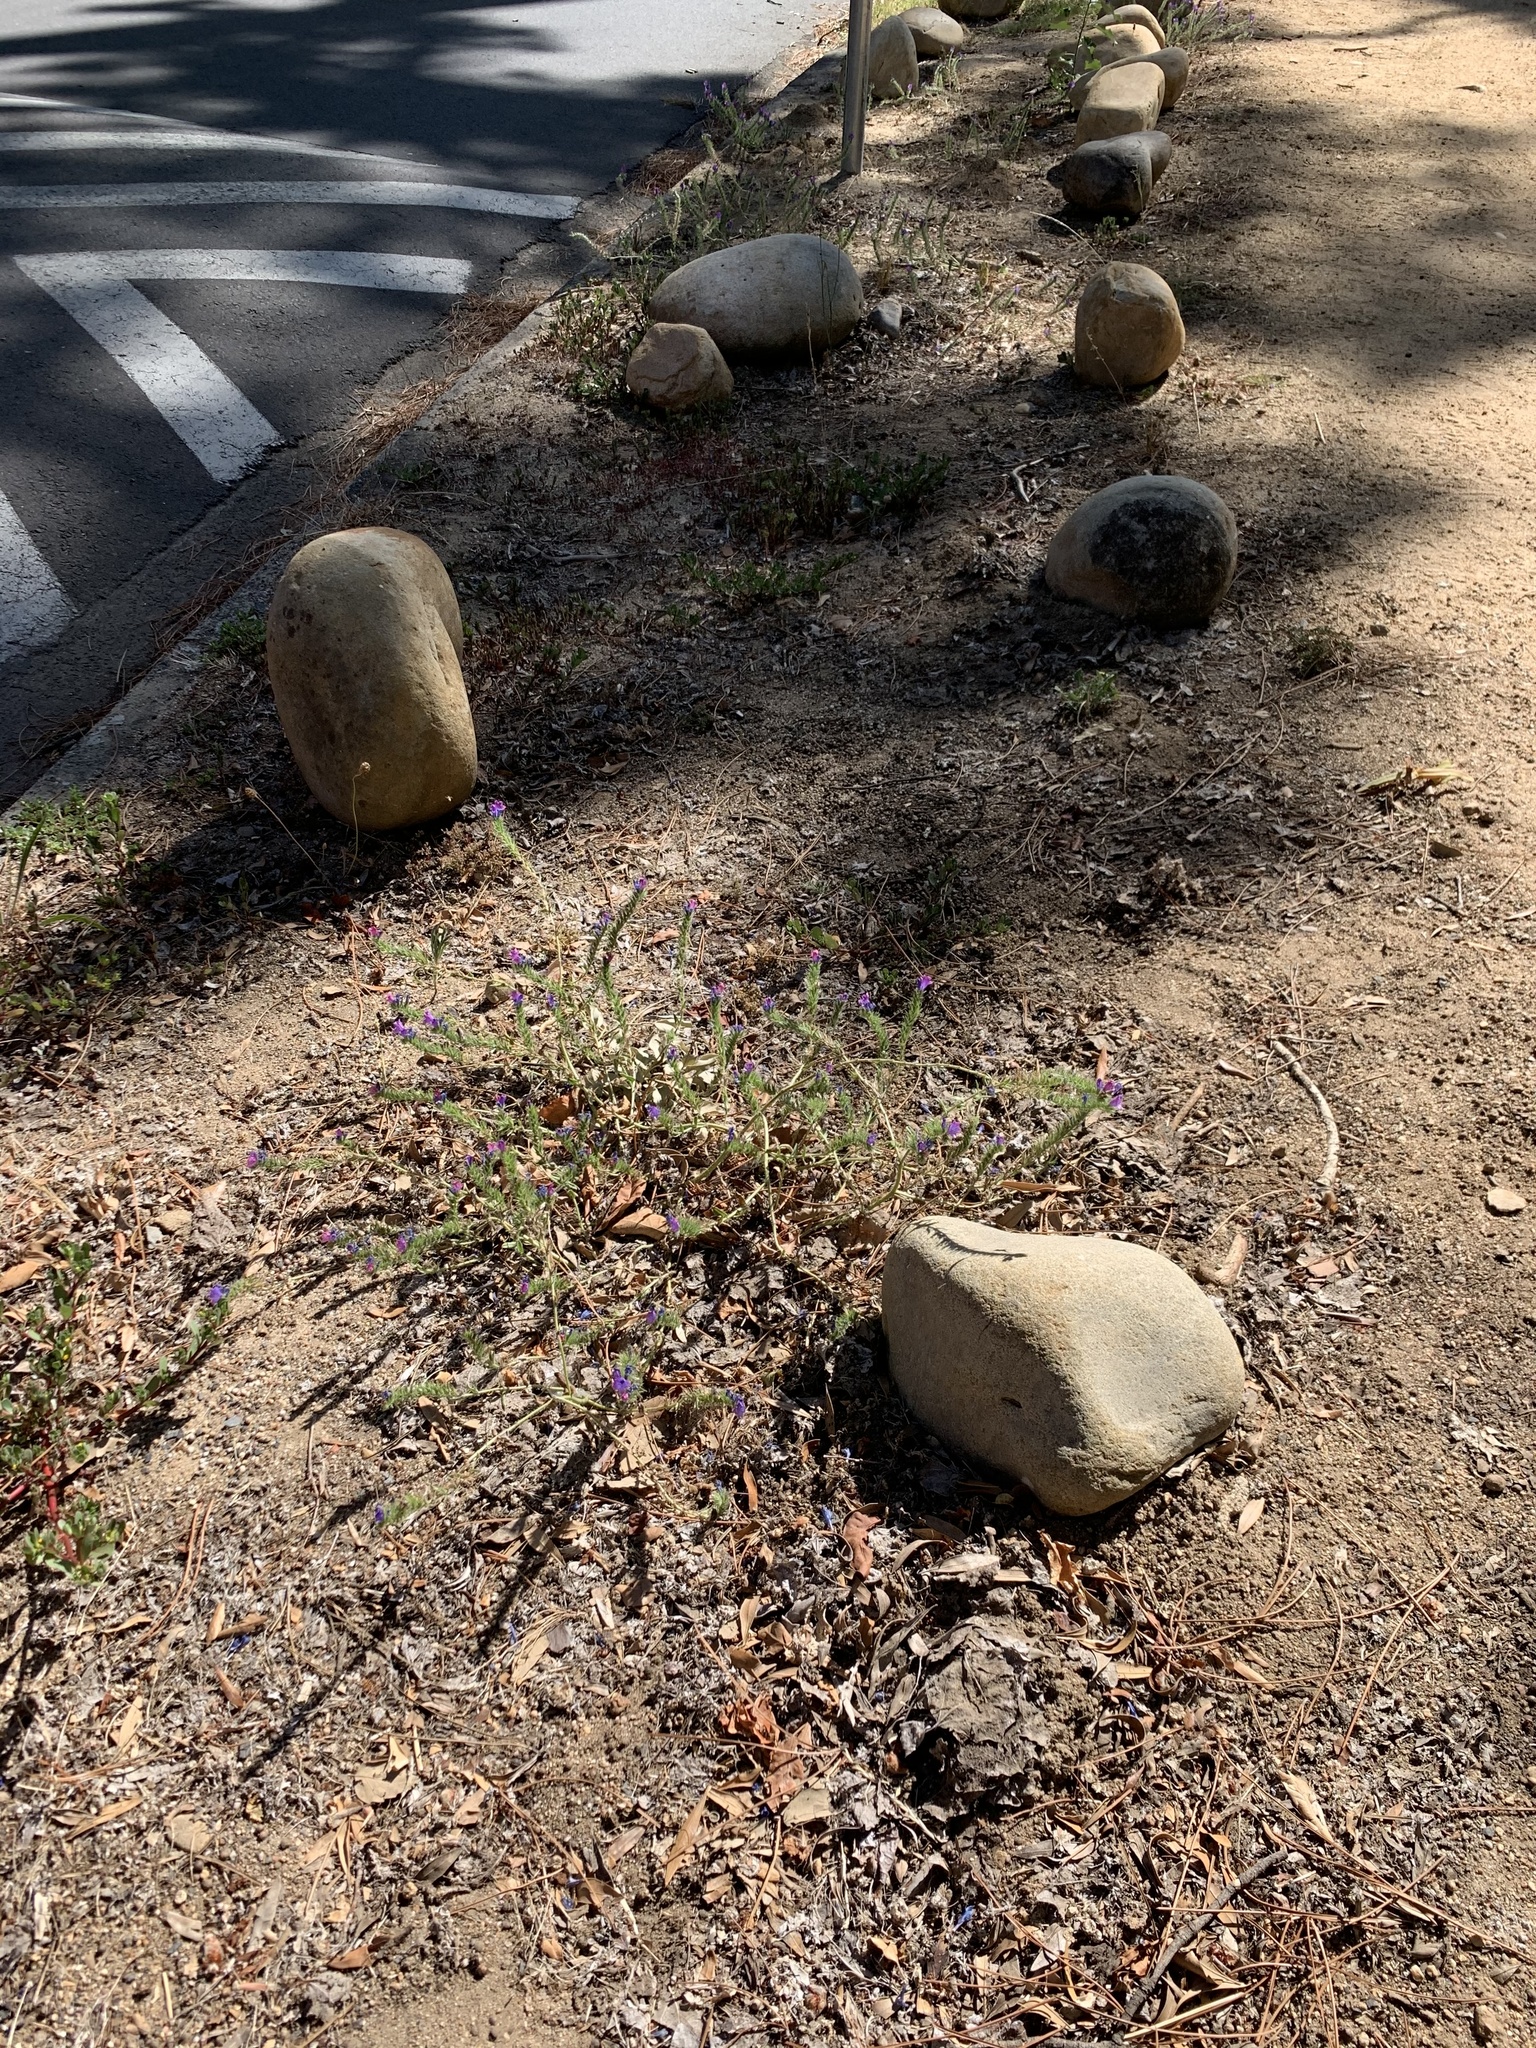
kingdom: Plantae
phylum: Tracheophyta
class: Magnoliopsida
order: Boraginales
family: Boraginaceae
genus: Echium
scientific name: Echium plantagineum
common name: Purple viper's-bugloss
